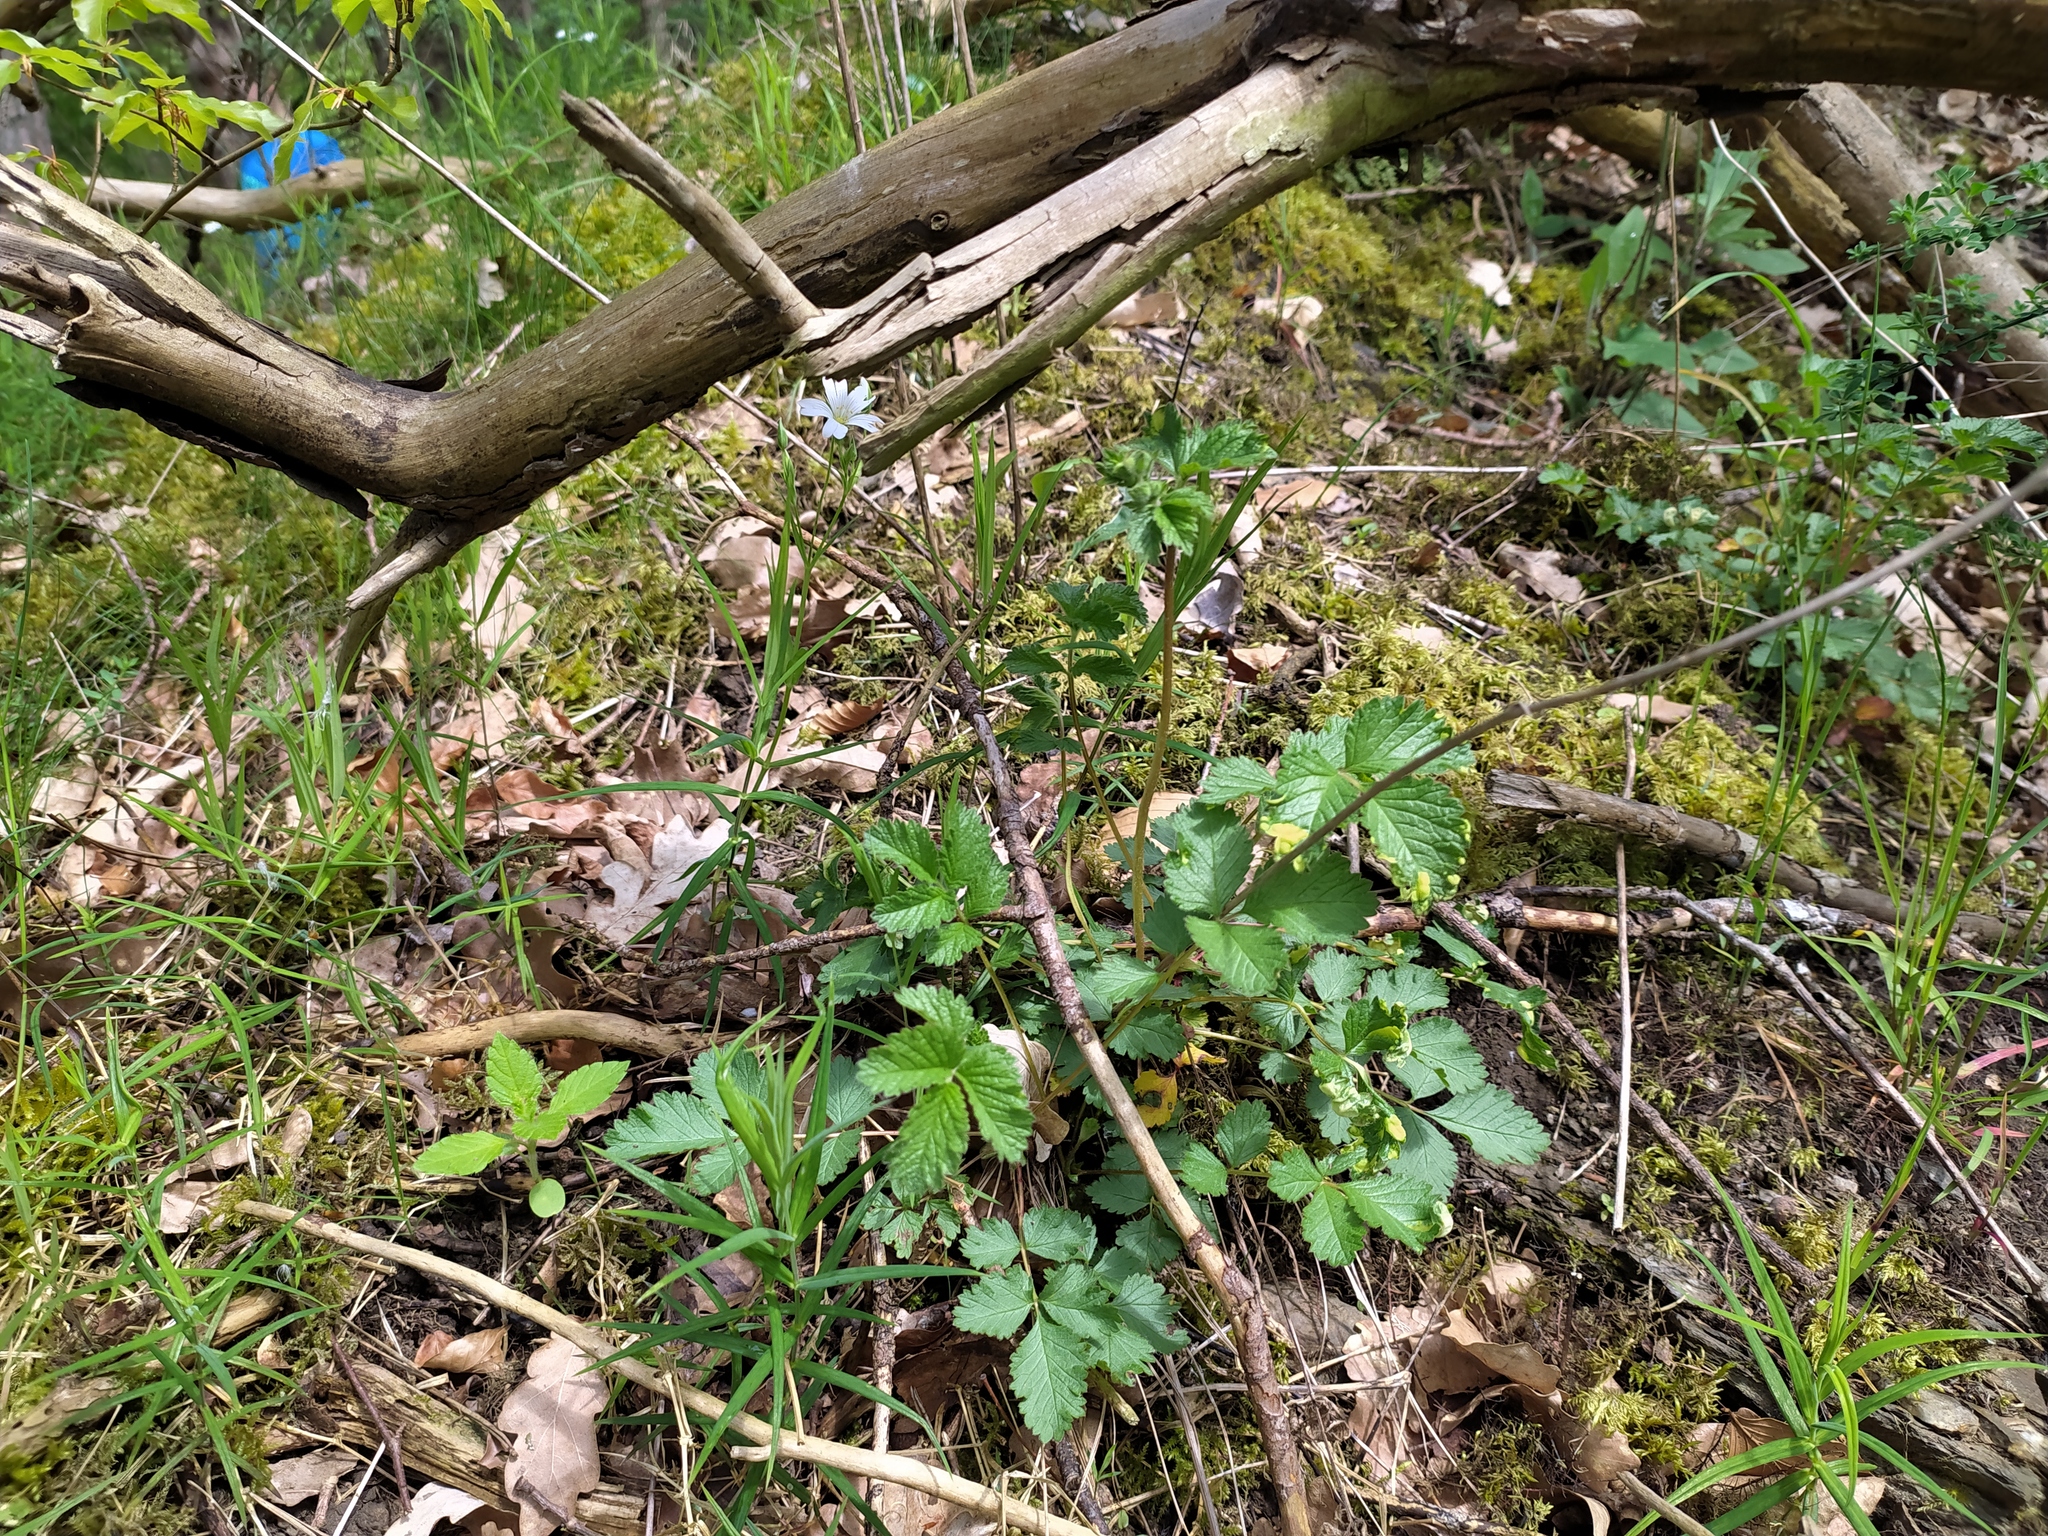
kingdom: Plantae
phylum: Tracheophyta
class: Magnoliopsida
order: Rosales
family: Rosaceae
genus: Drymocallis
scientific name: Drymocallis rupestris
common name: Rock cinquefoil
